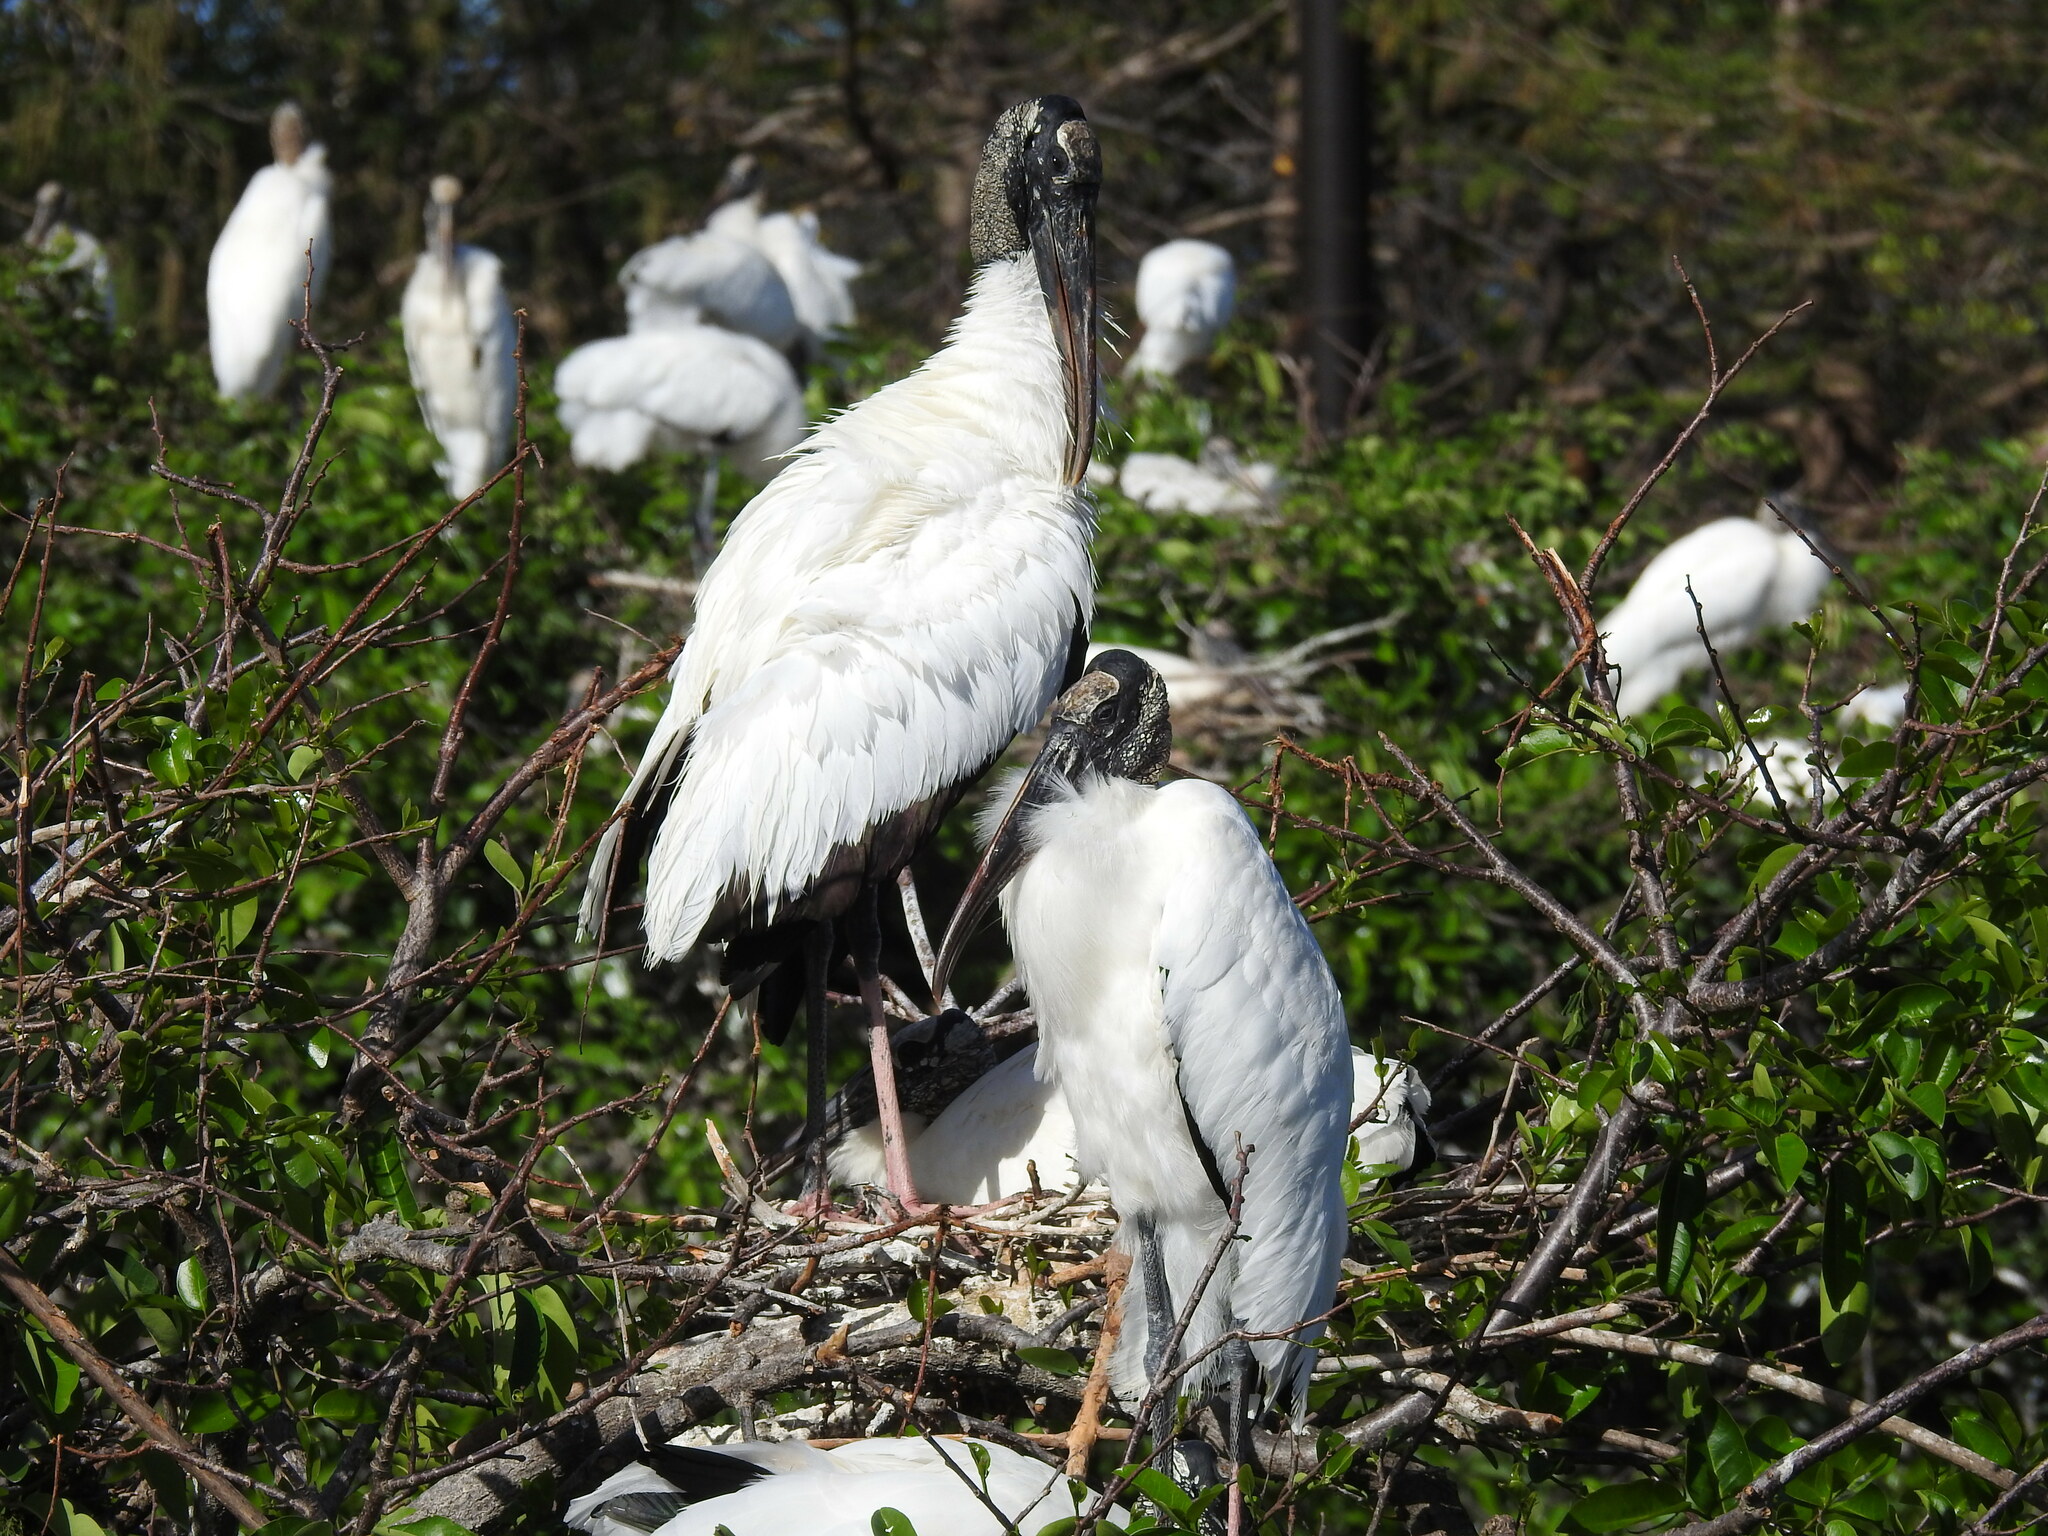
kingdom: Animalia
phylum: Chordata
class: Aves
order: Ciconiiformes
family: Ciconiidae
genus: Mycteria
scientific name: Mycteria americana
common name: Wood stork
